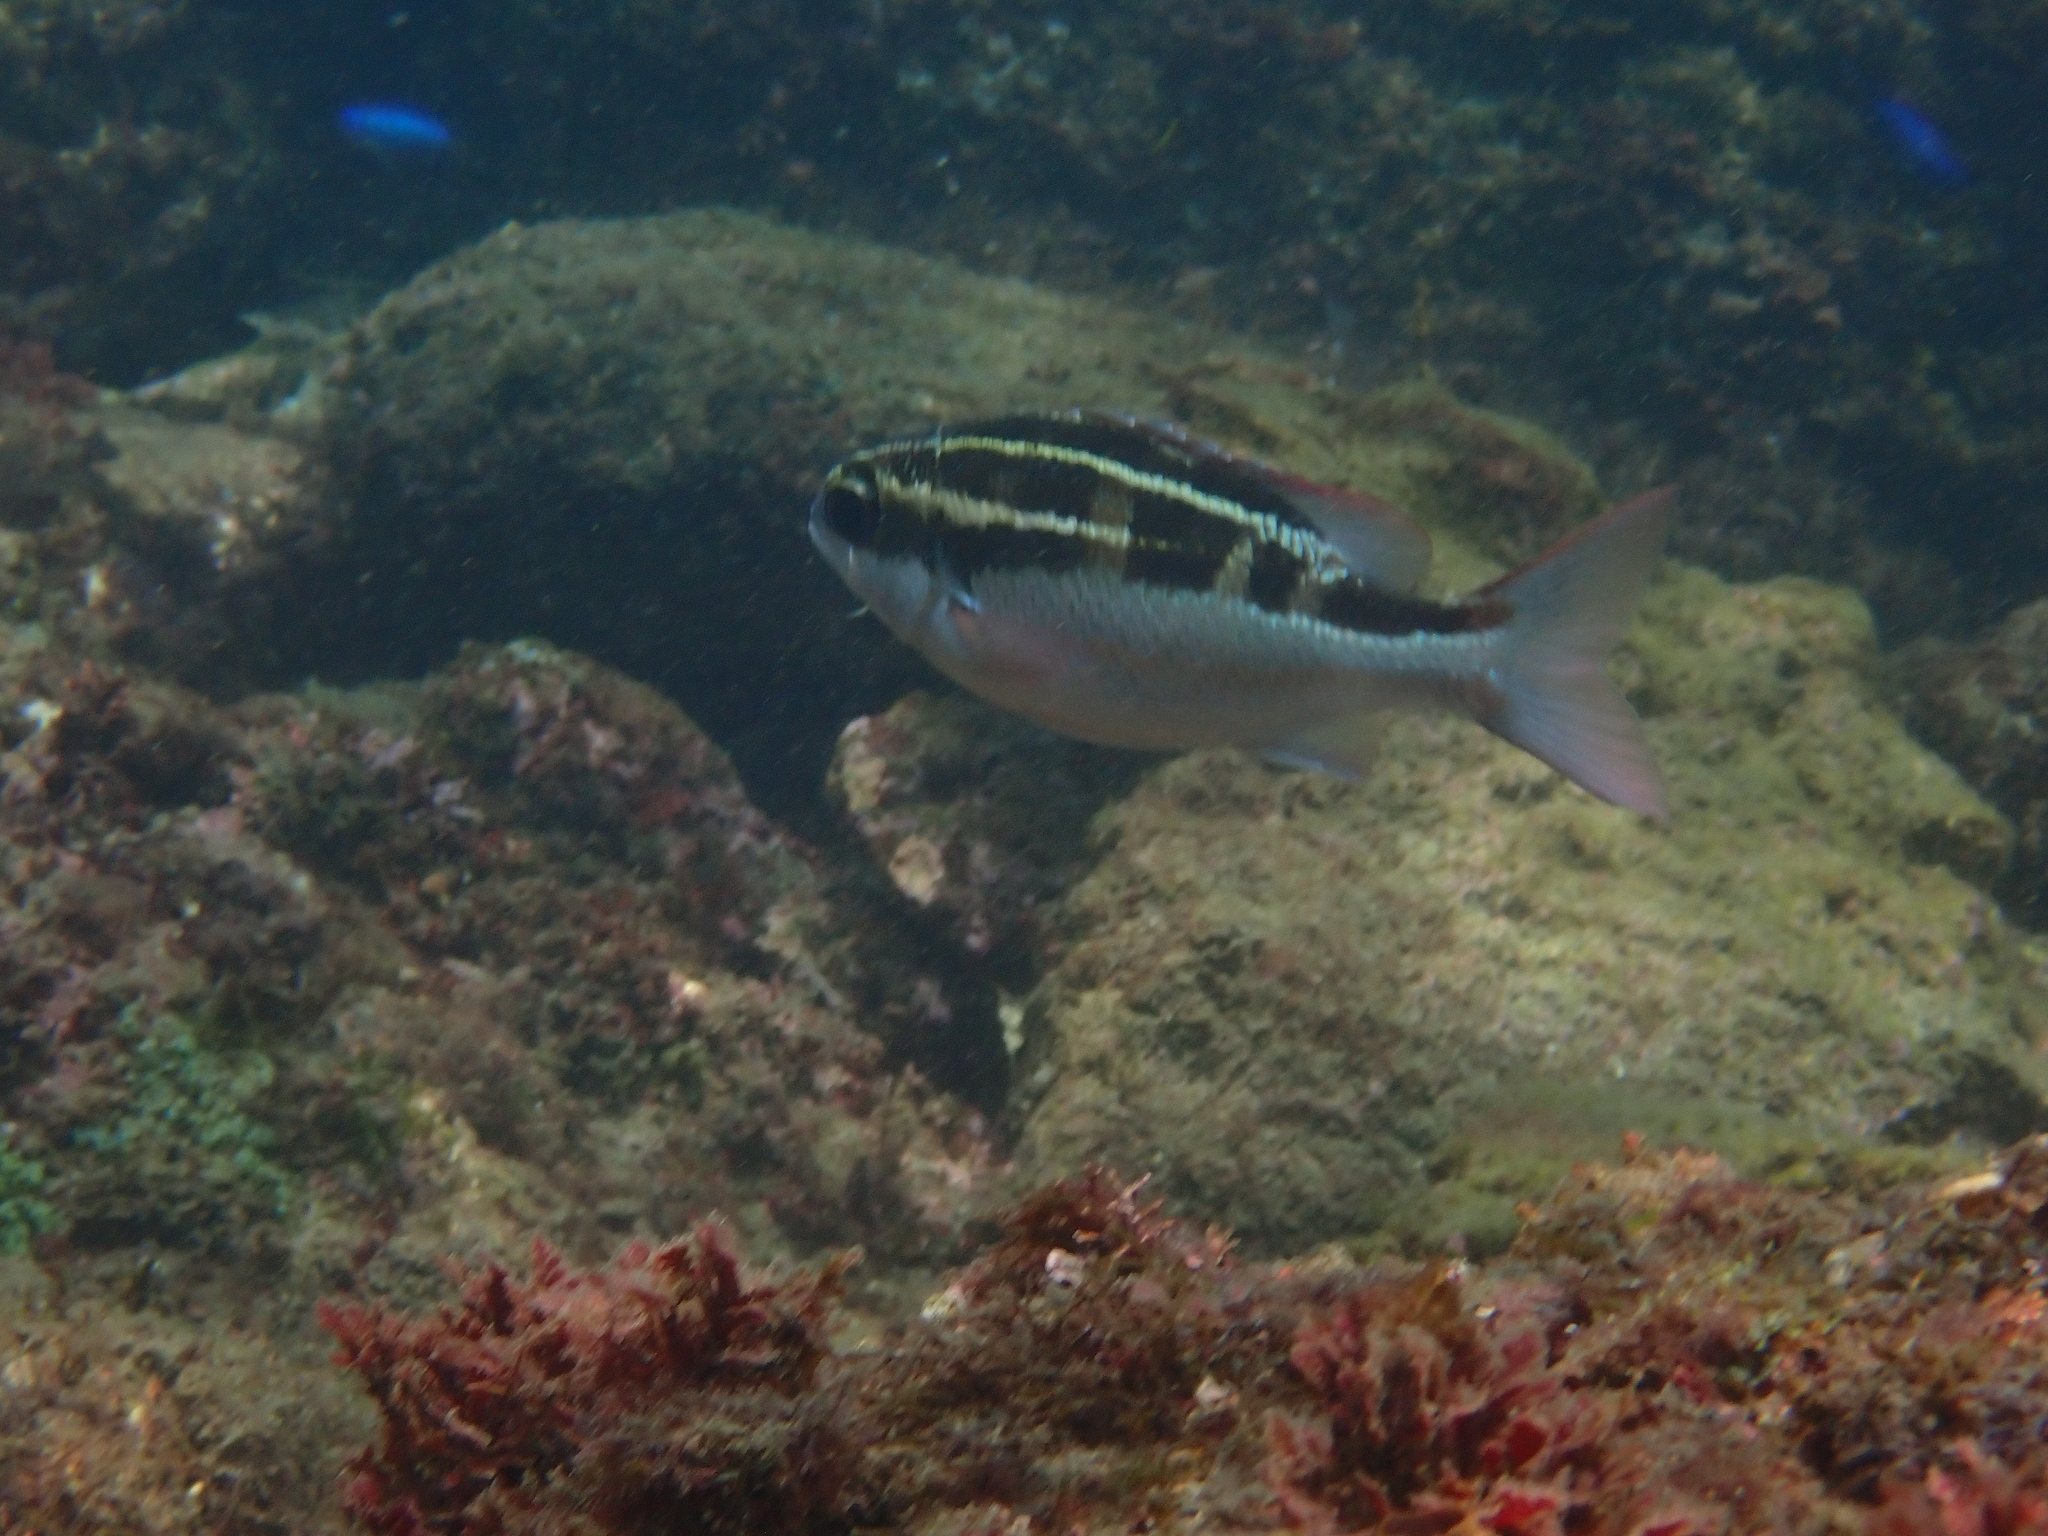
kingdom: Animalia
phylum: Chordata
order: Perciformes
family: Nemipteridae
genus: Scolopsis
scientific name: Scolopsis lineata
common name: Striped monocle bream
